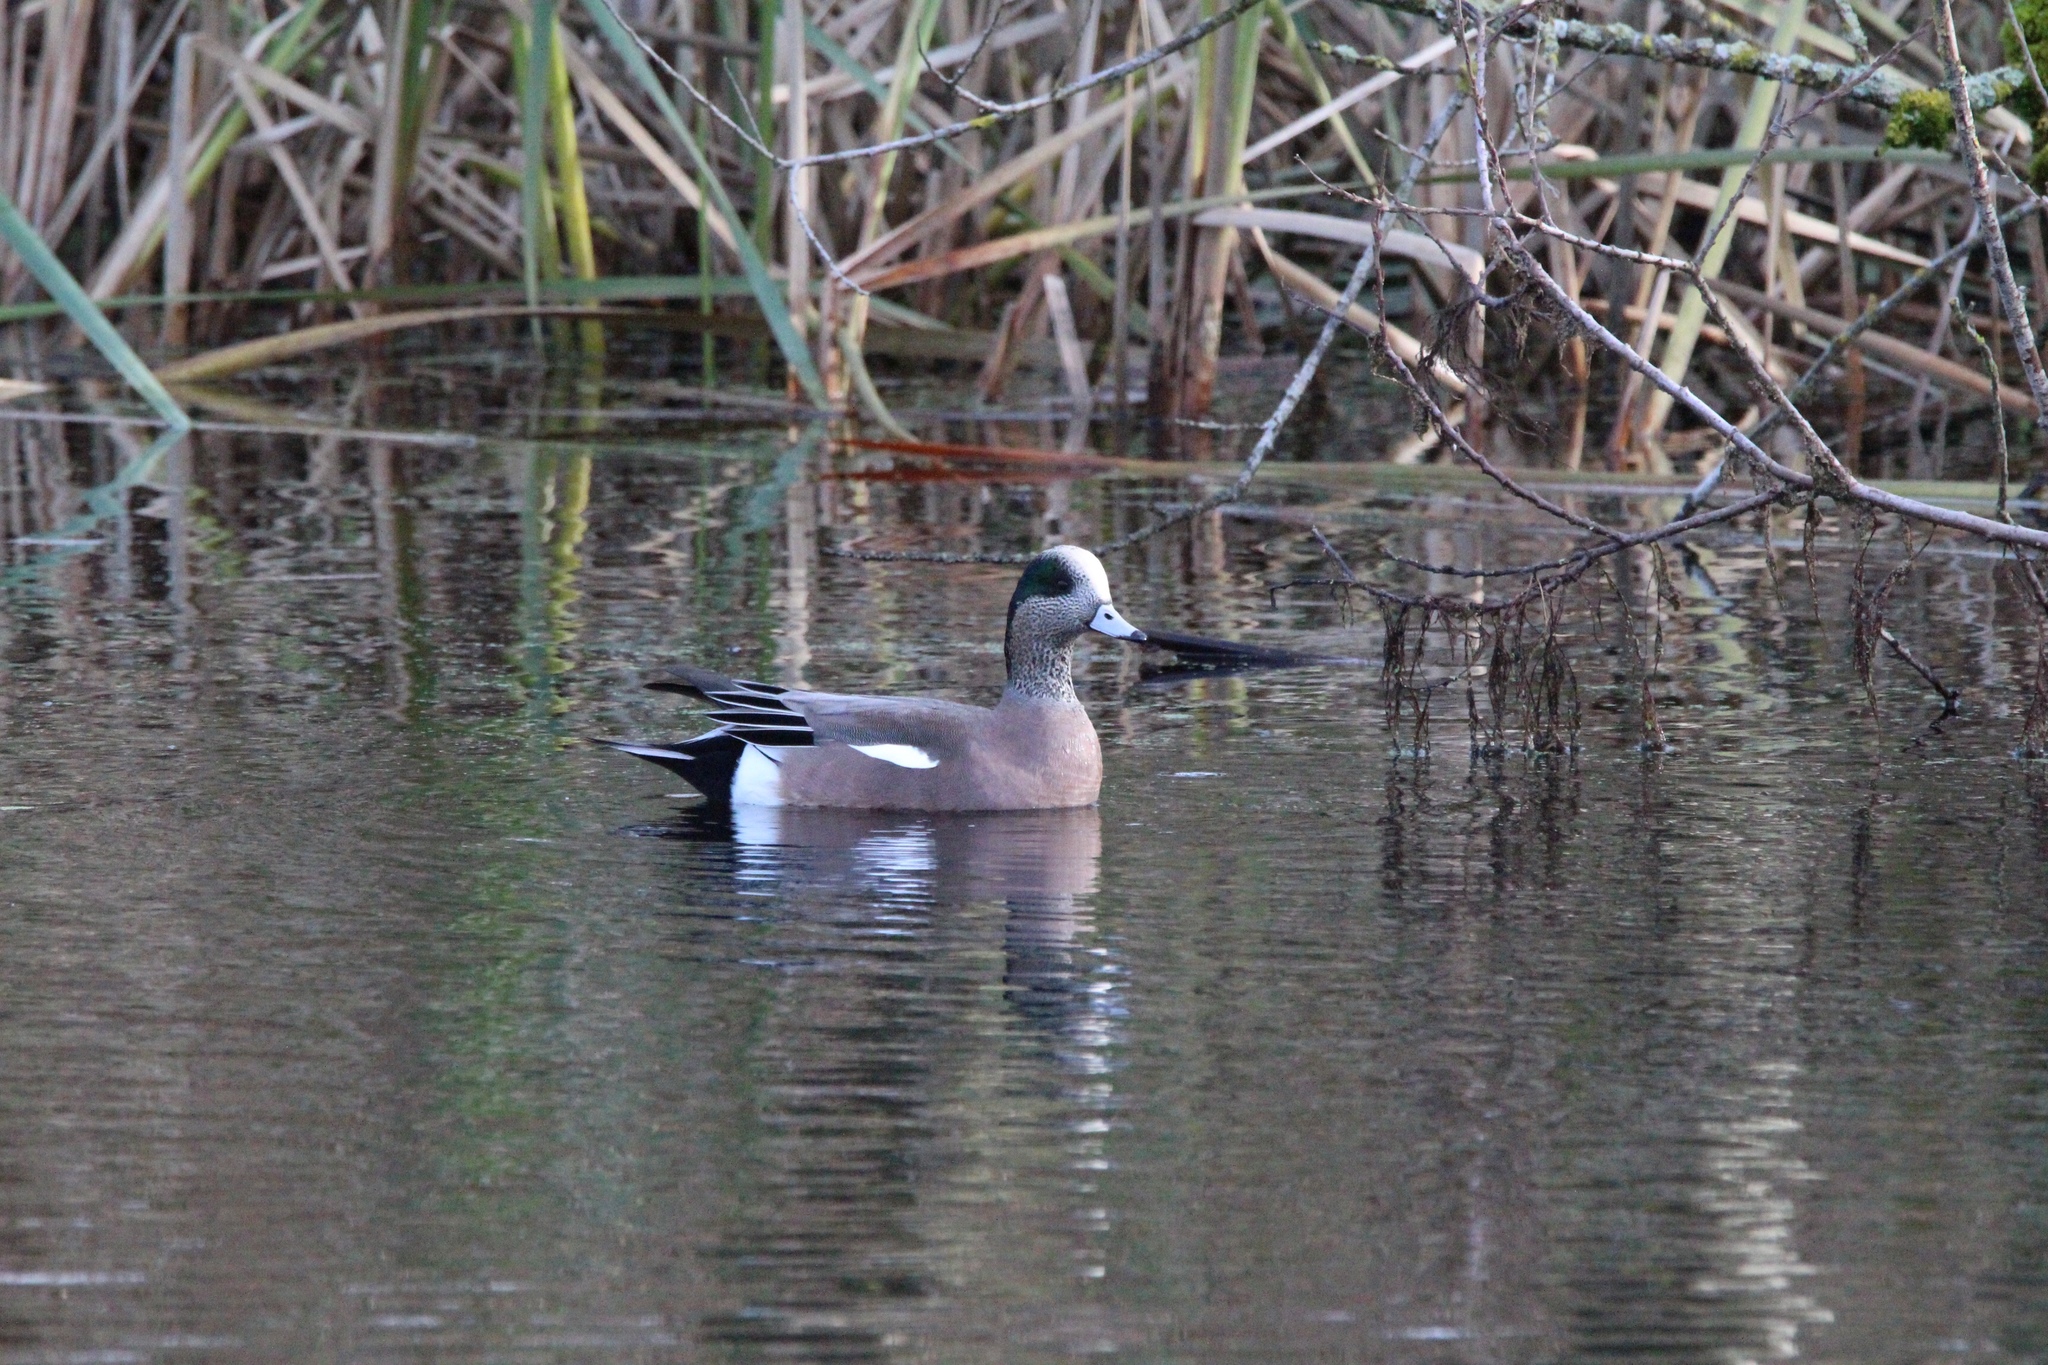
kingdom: Animalia
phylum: Chordata
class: Aves
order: Anseriformes
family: Anatidae
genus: Mareca
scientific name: Mareca americana
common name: American wigeon
